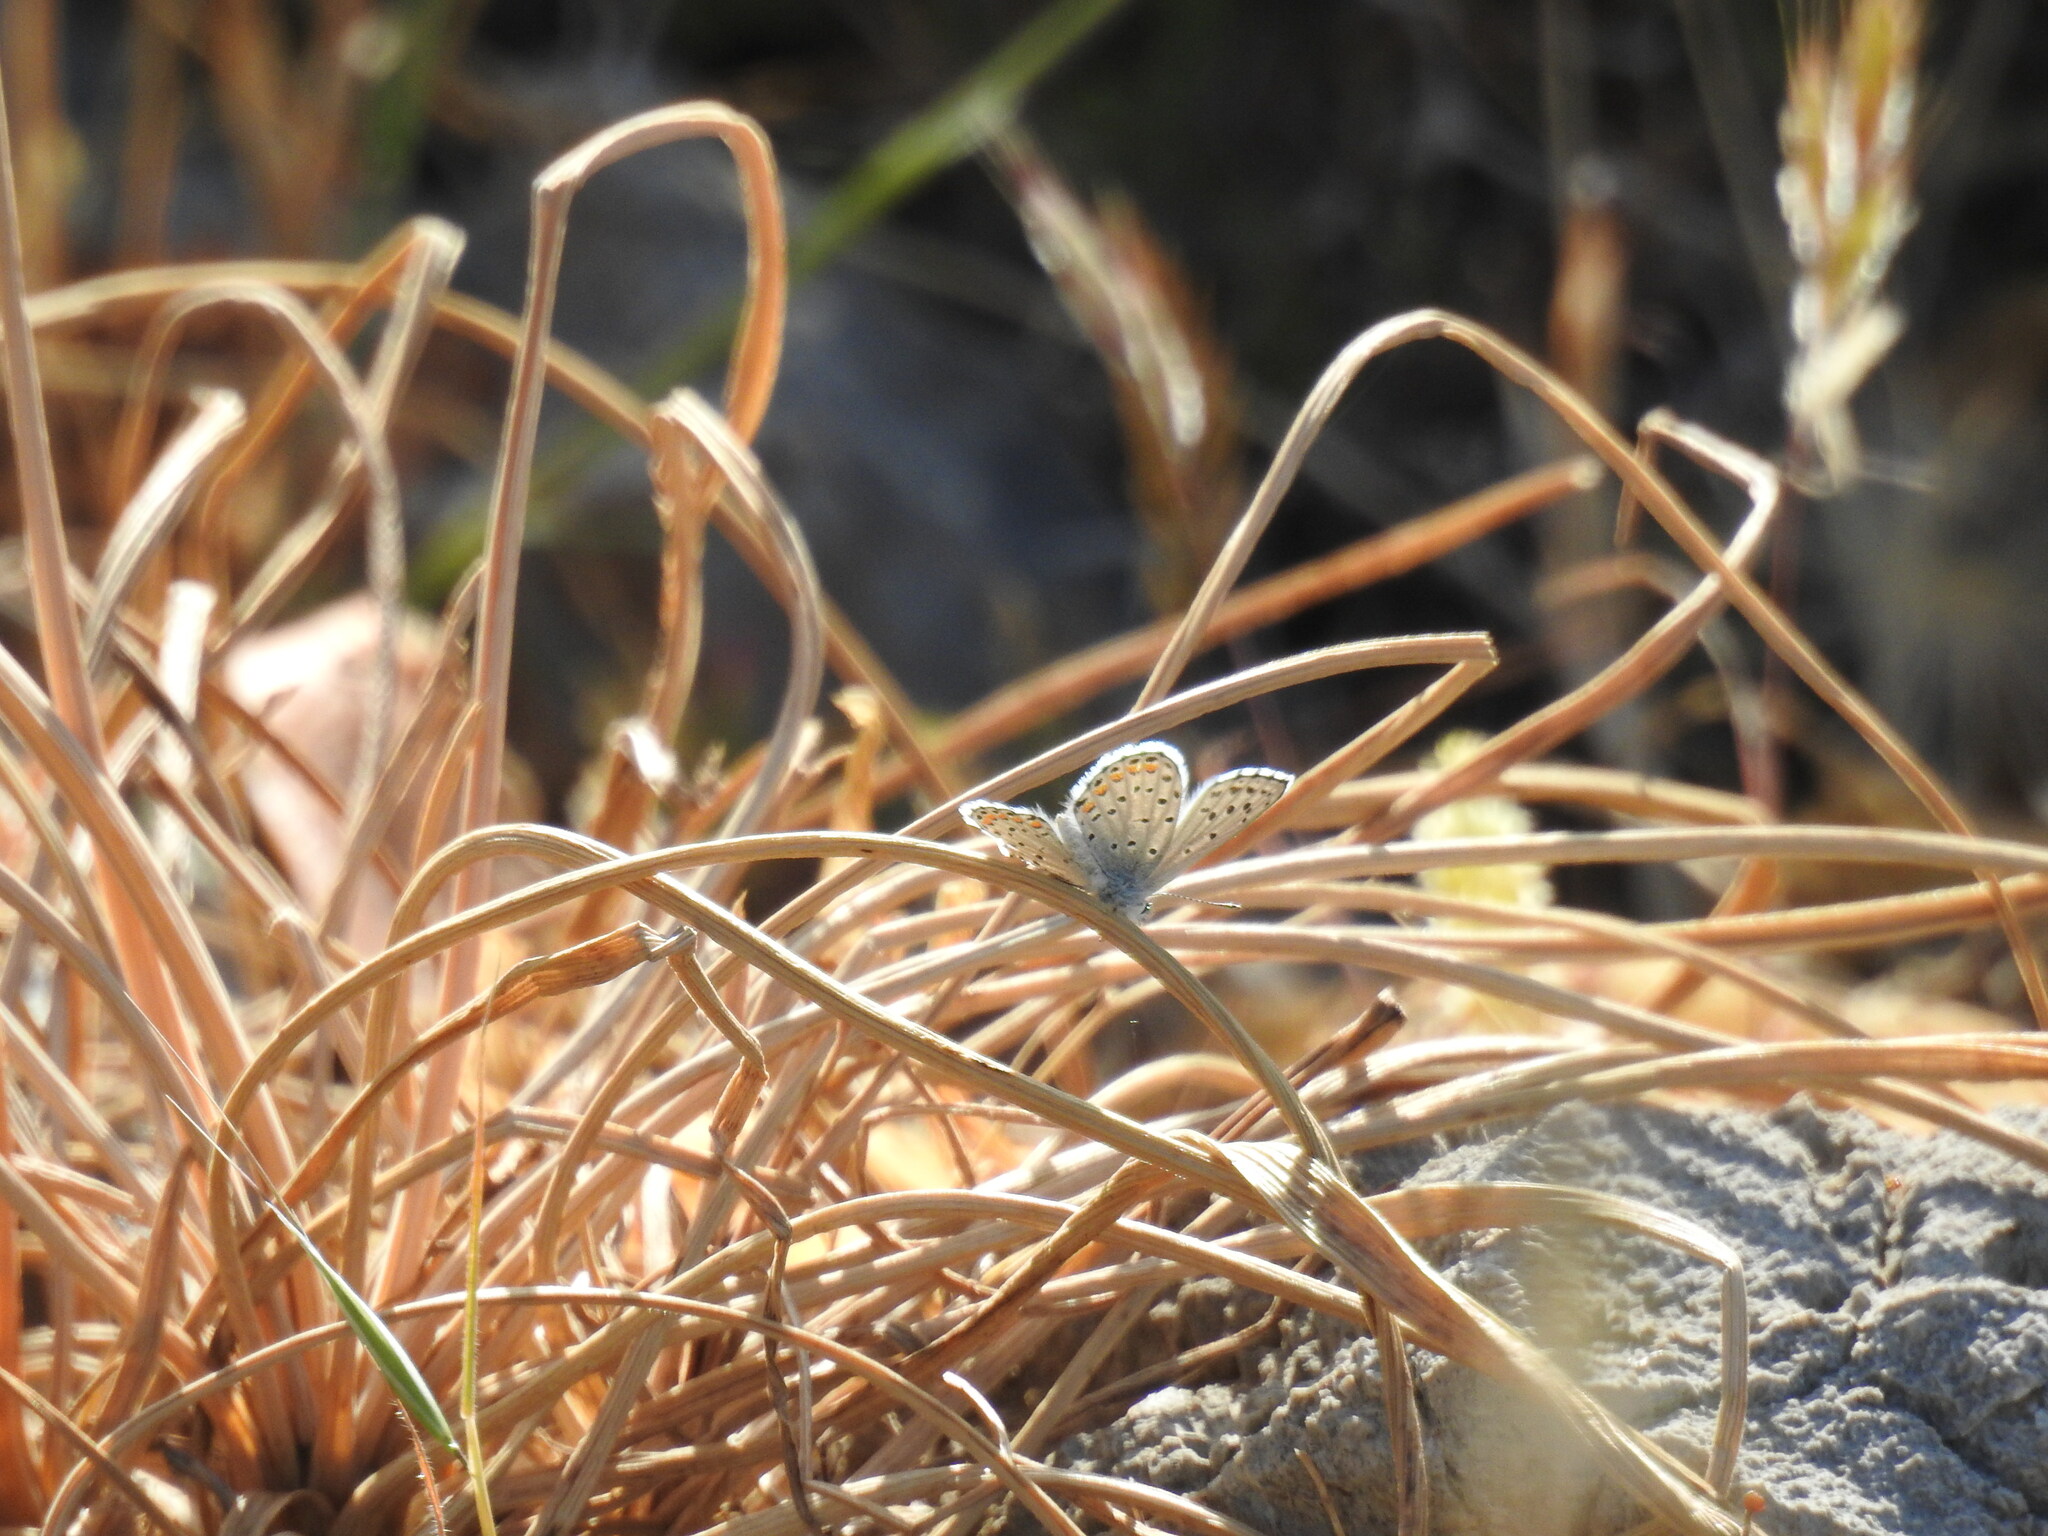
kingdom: Animalia
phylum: Arthropoda
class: Insecta
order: Lepidoptera
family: Lycaenidae
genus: Pseudophilotes
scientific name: Pseudophilotes baton
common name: Baton blue
